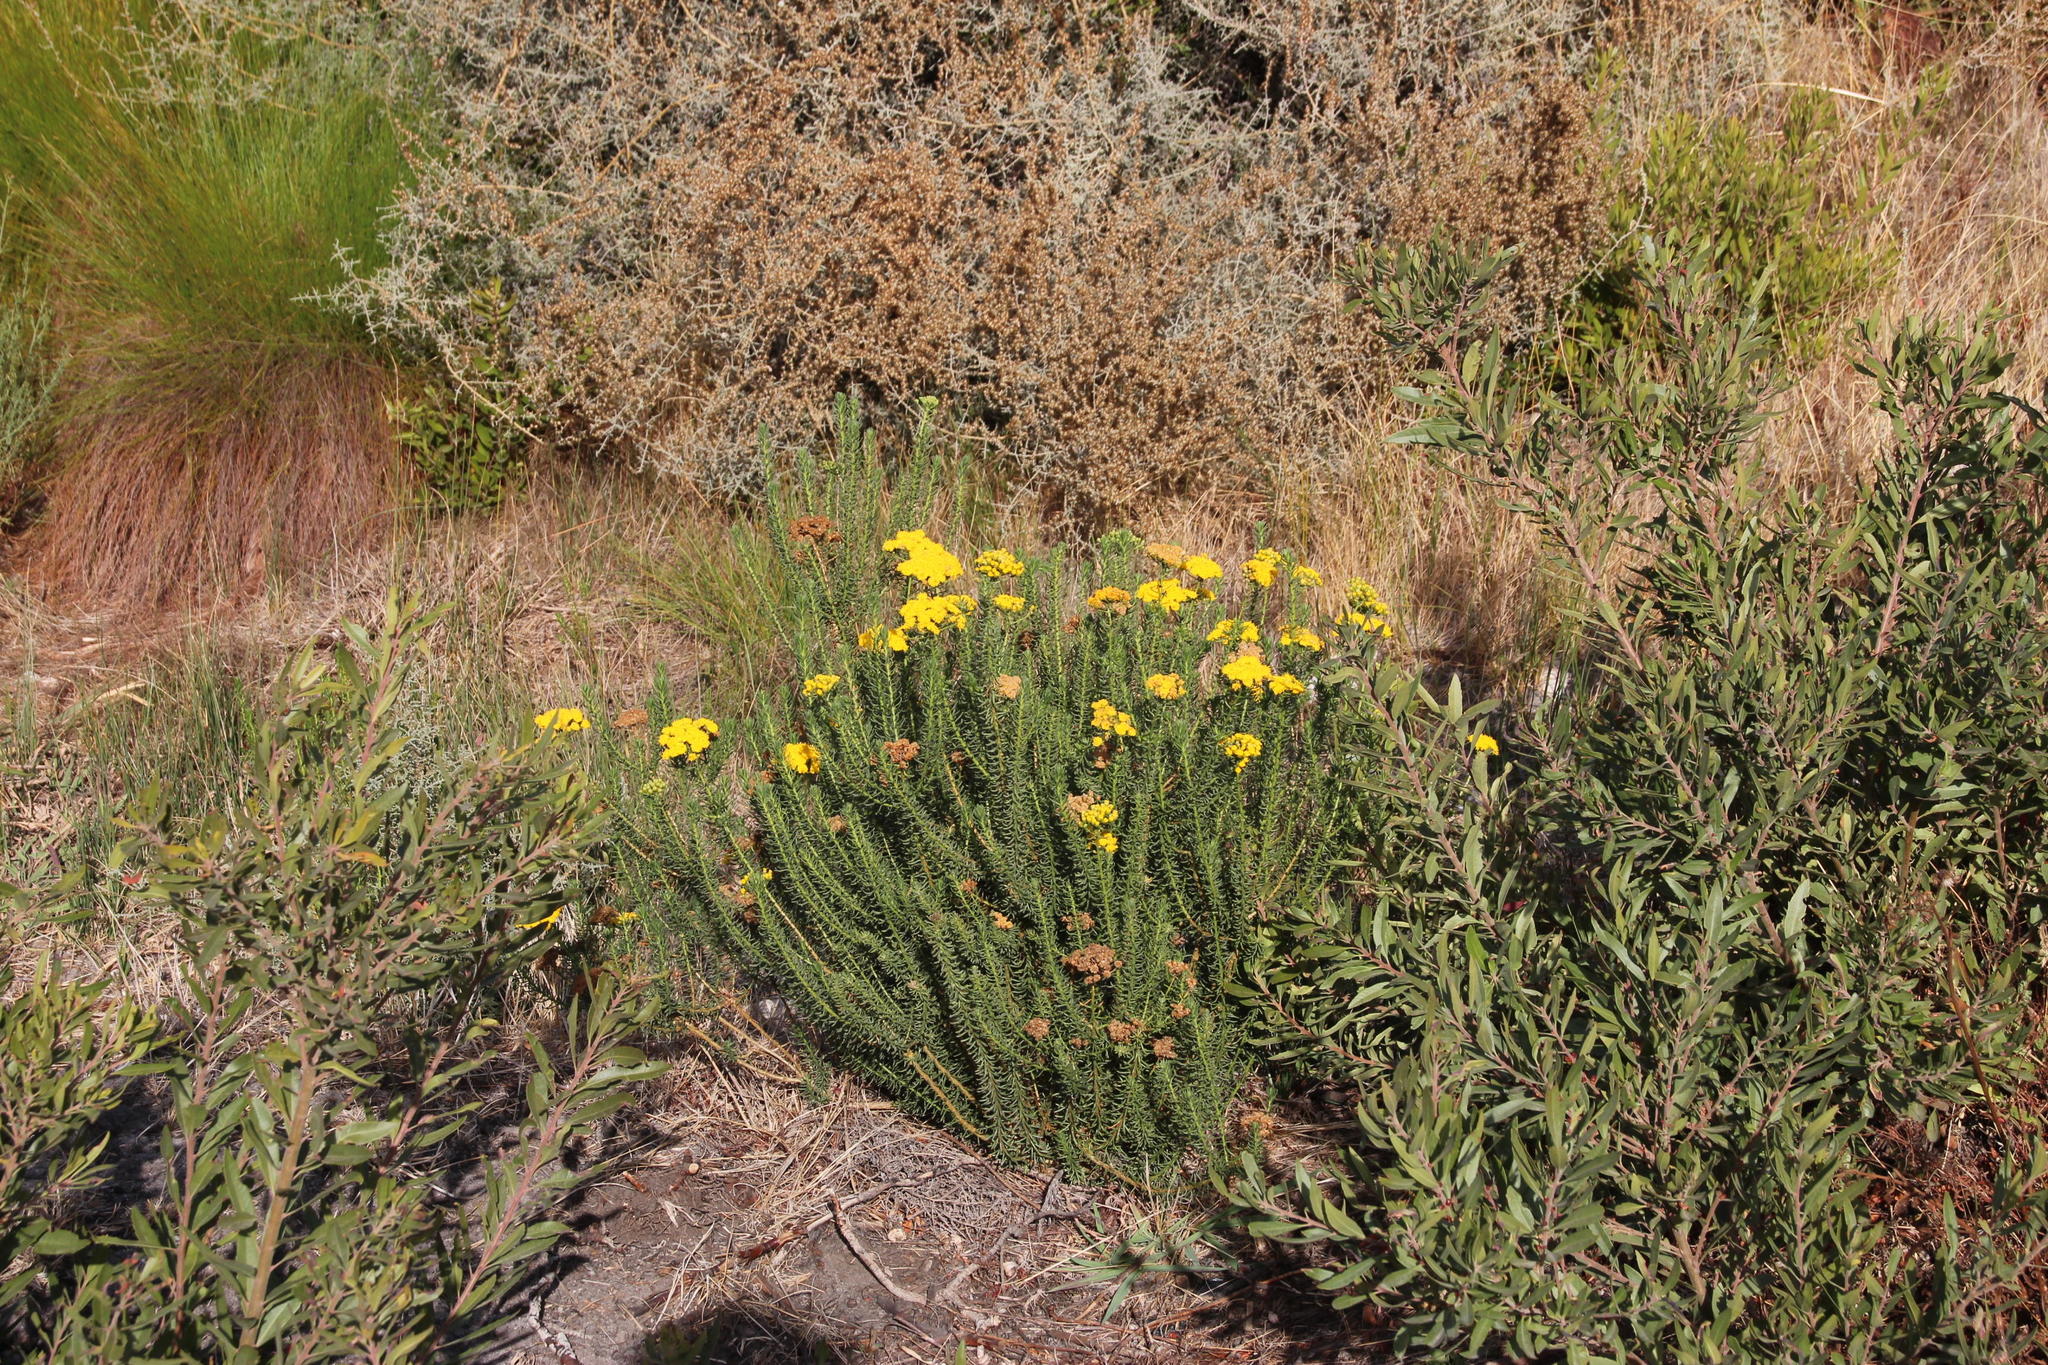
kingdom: Plantae
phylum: Tracheophyta
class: Magnoliopsida
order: Asterales
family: Asteraceae
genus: Athanasia
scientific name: Athanasia flexuosa
